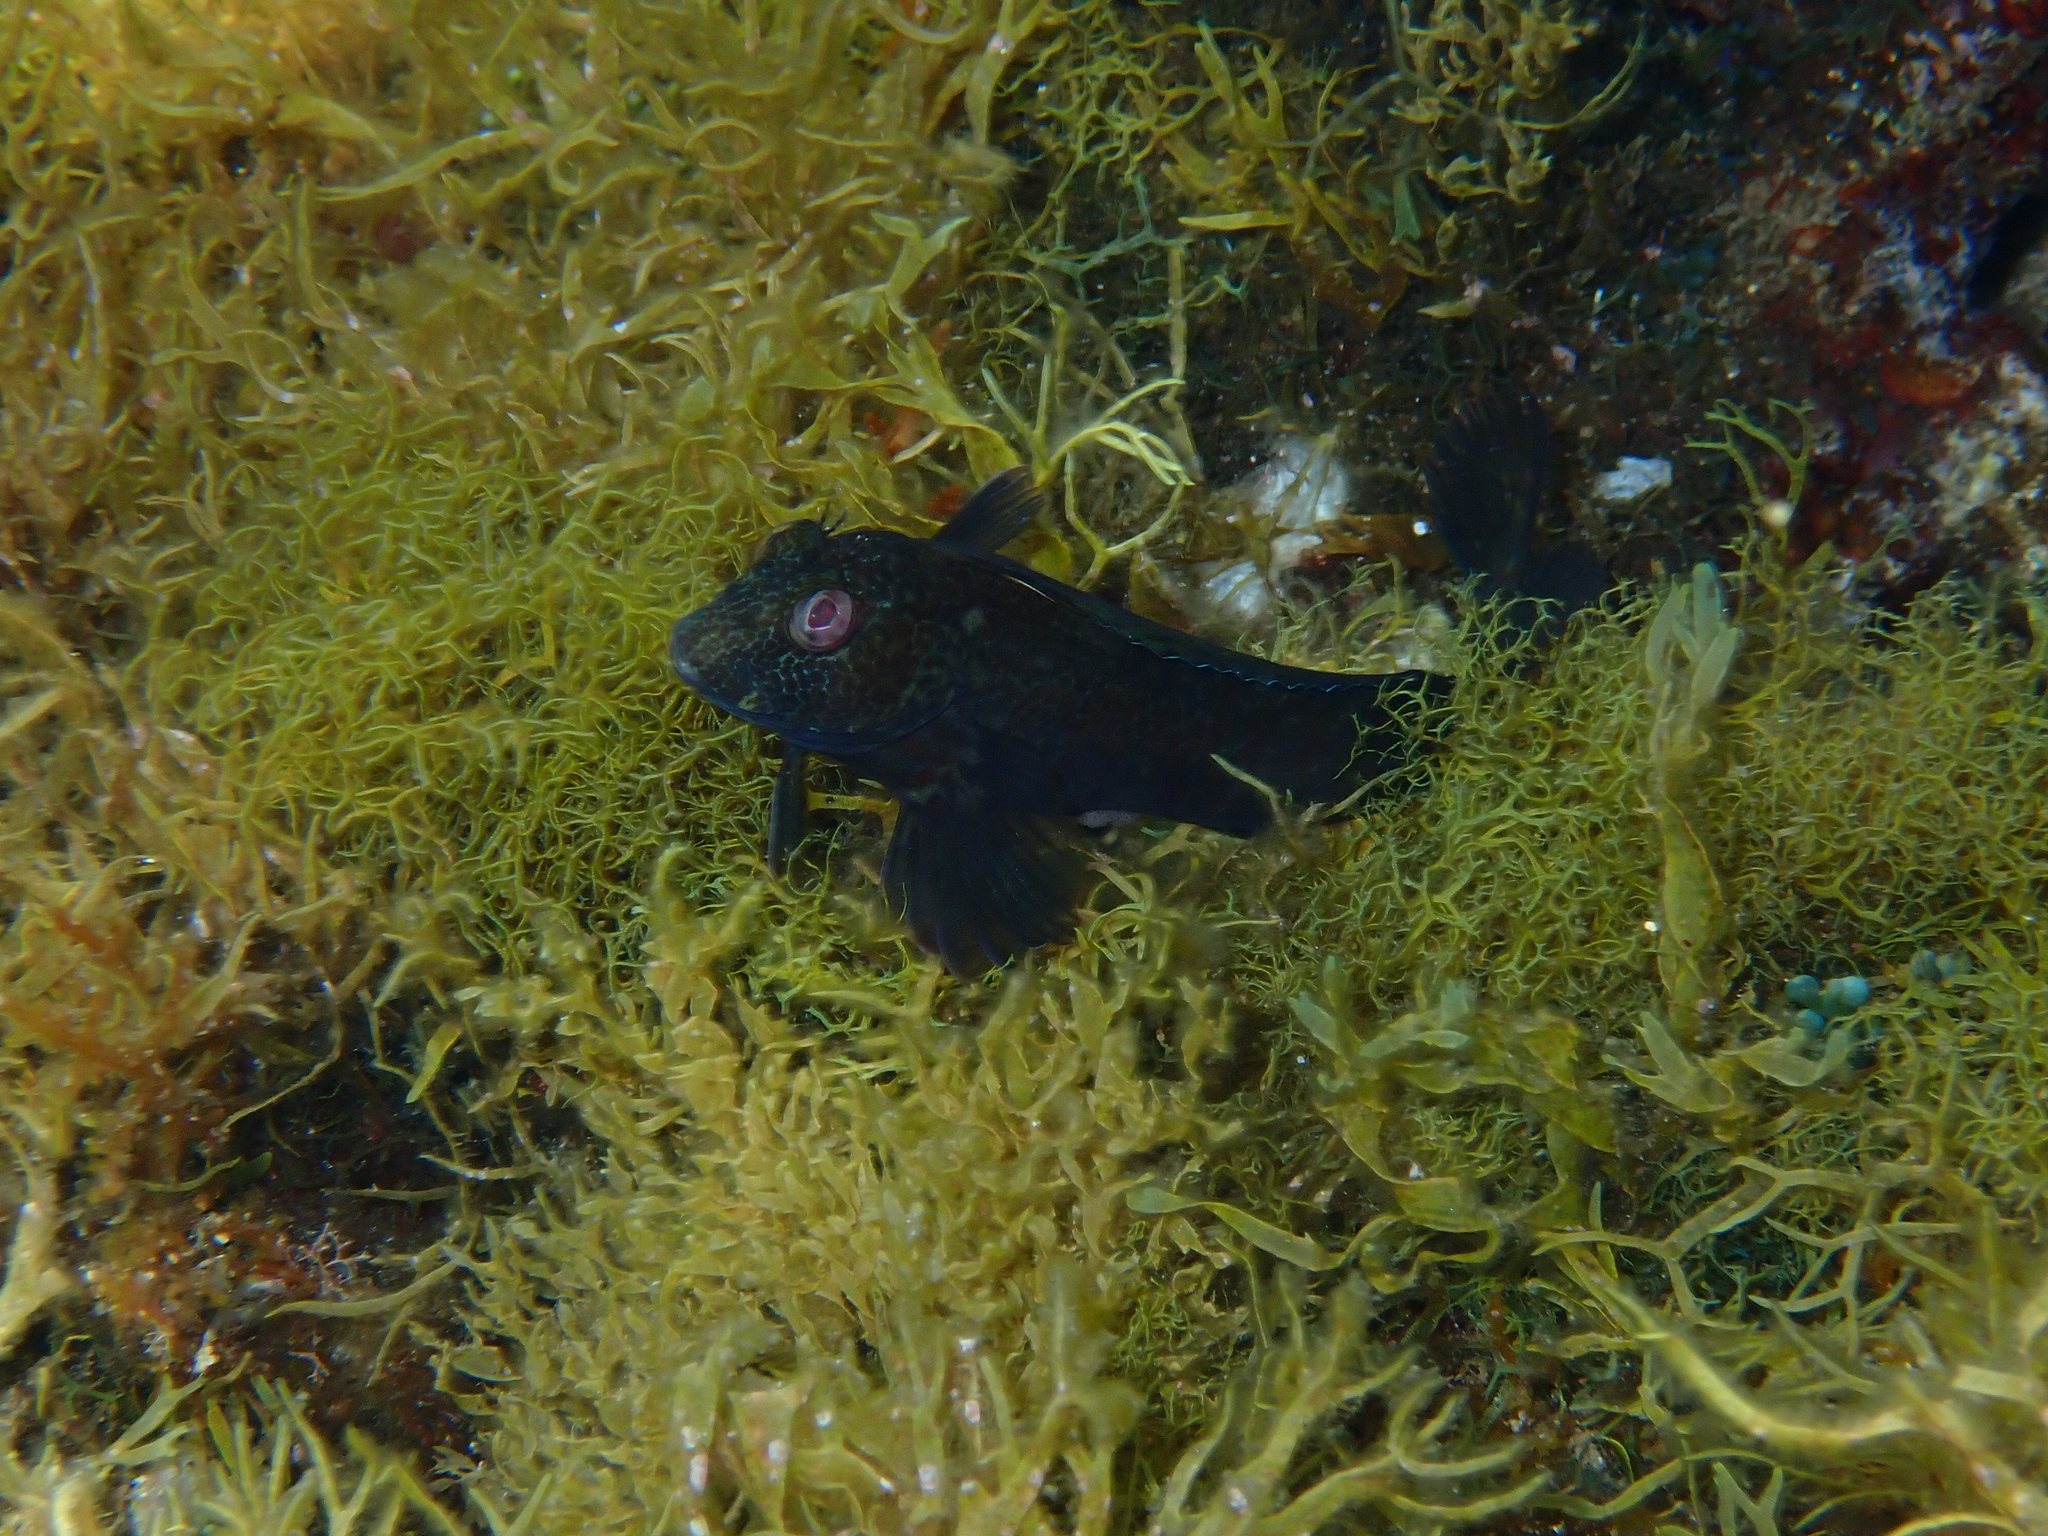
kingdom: Animalia
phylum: Chordata
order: Perciformes
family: Blenniidae
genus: Parablennius
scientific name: Parablennius pilicornis
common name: Ringneck blenny
